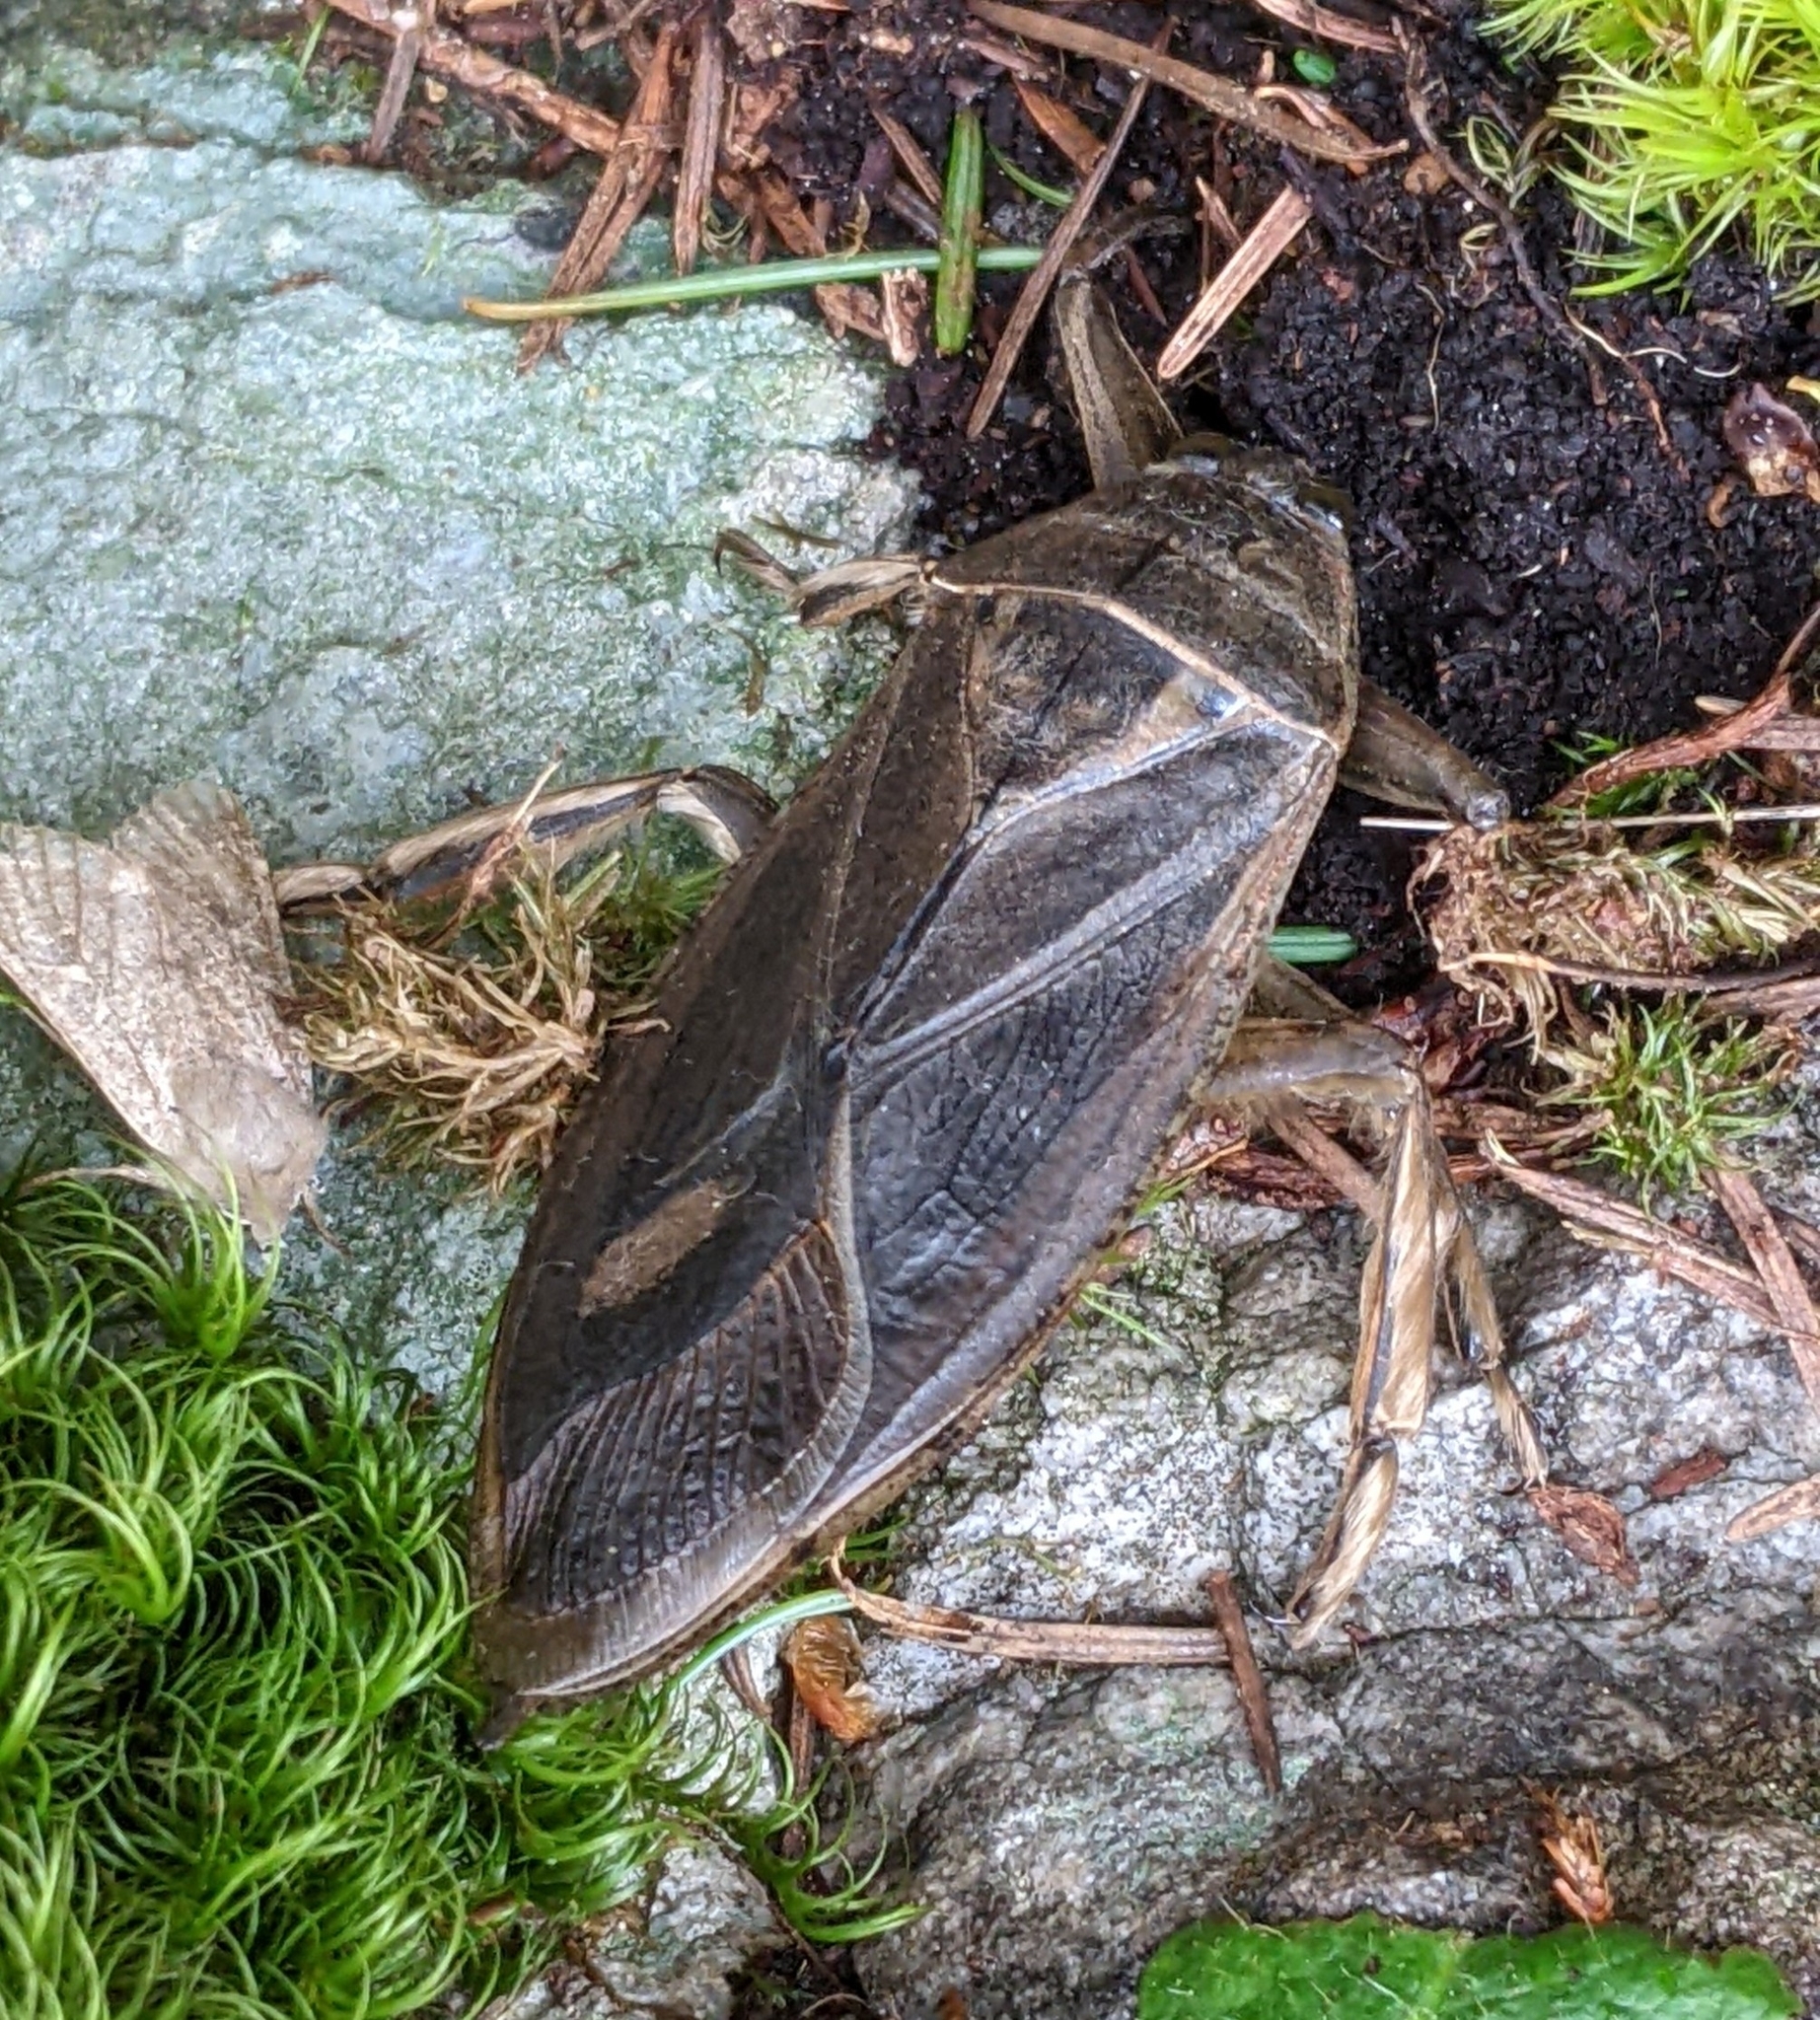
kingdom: Animalia
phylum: Arthropoda
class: Insecta
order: Hemiptera
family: Belostomatidae
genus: Lethocerus
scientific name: Lethocerus americanus
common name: Giant water bug
